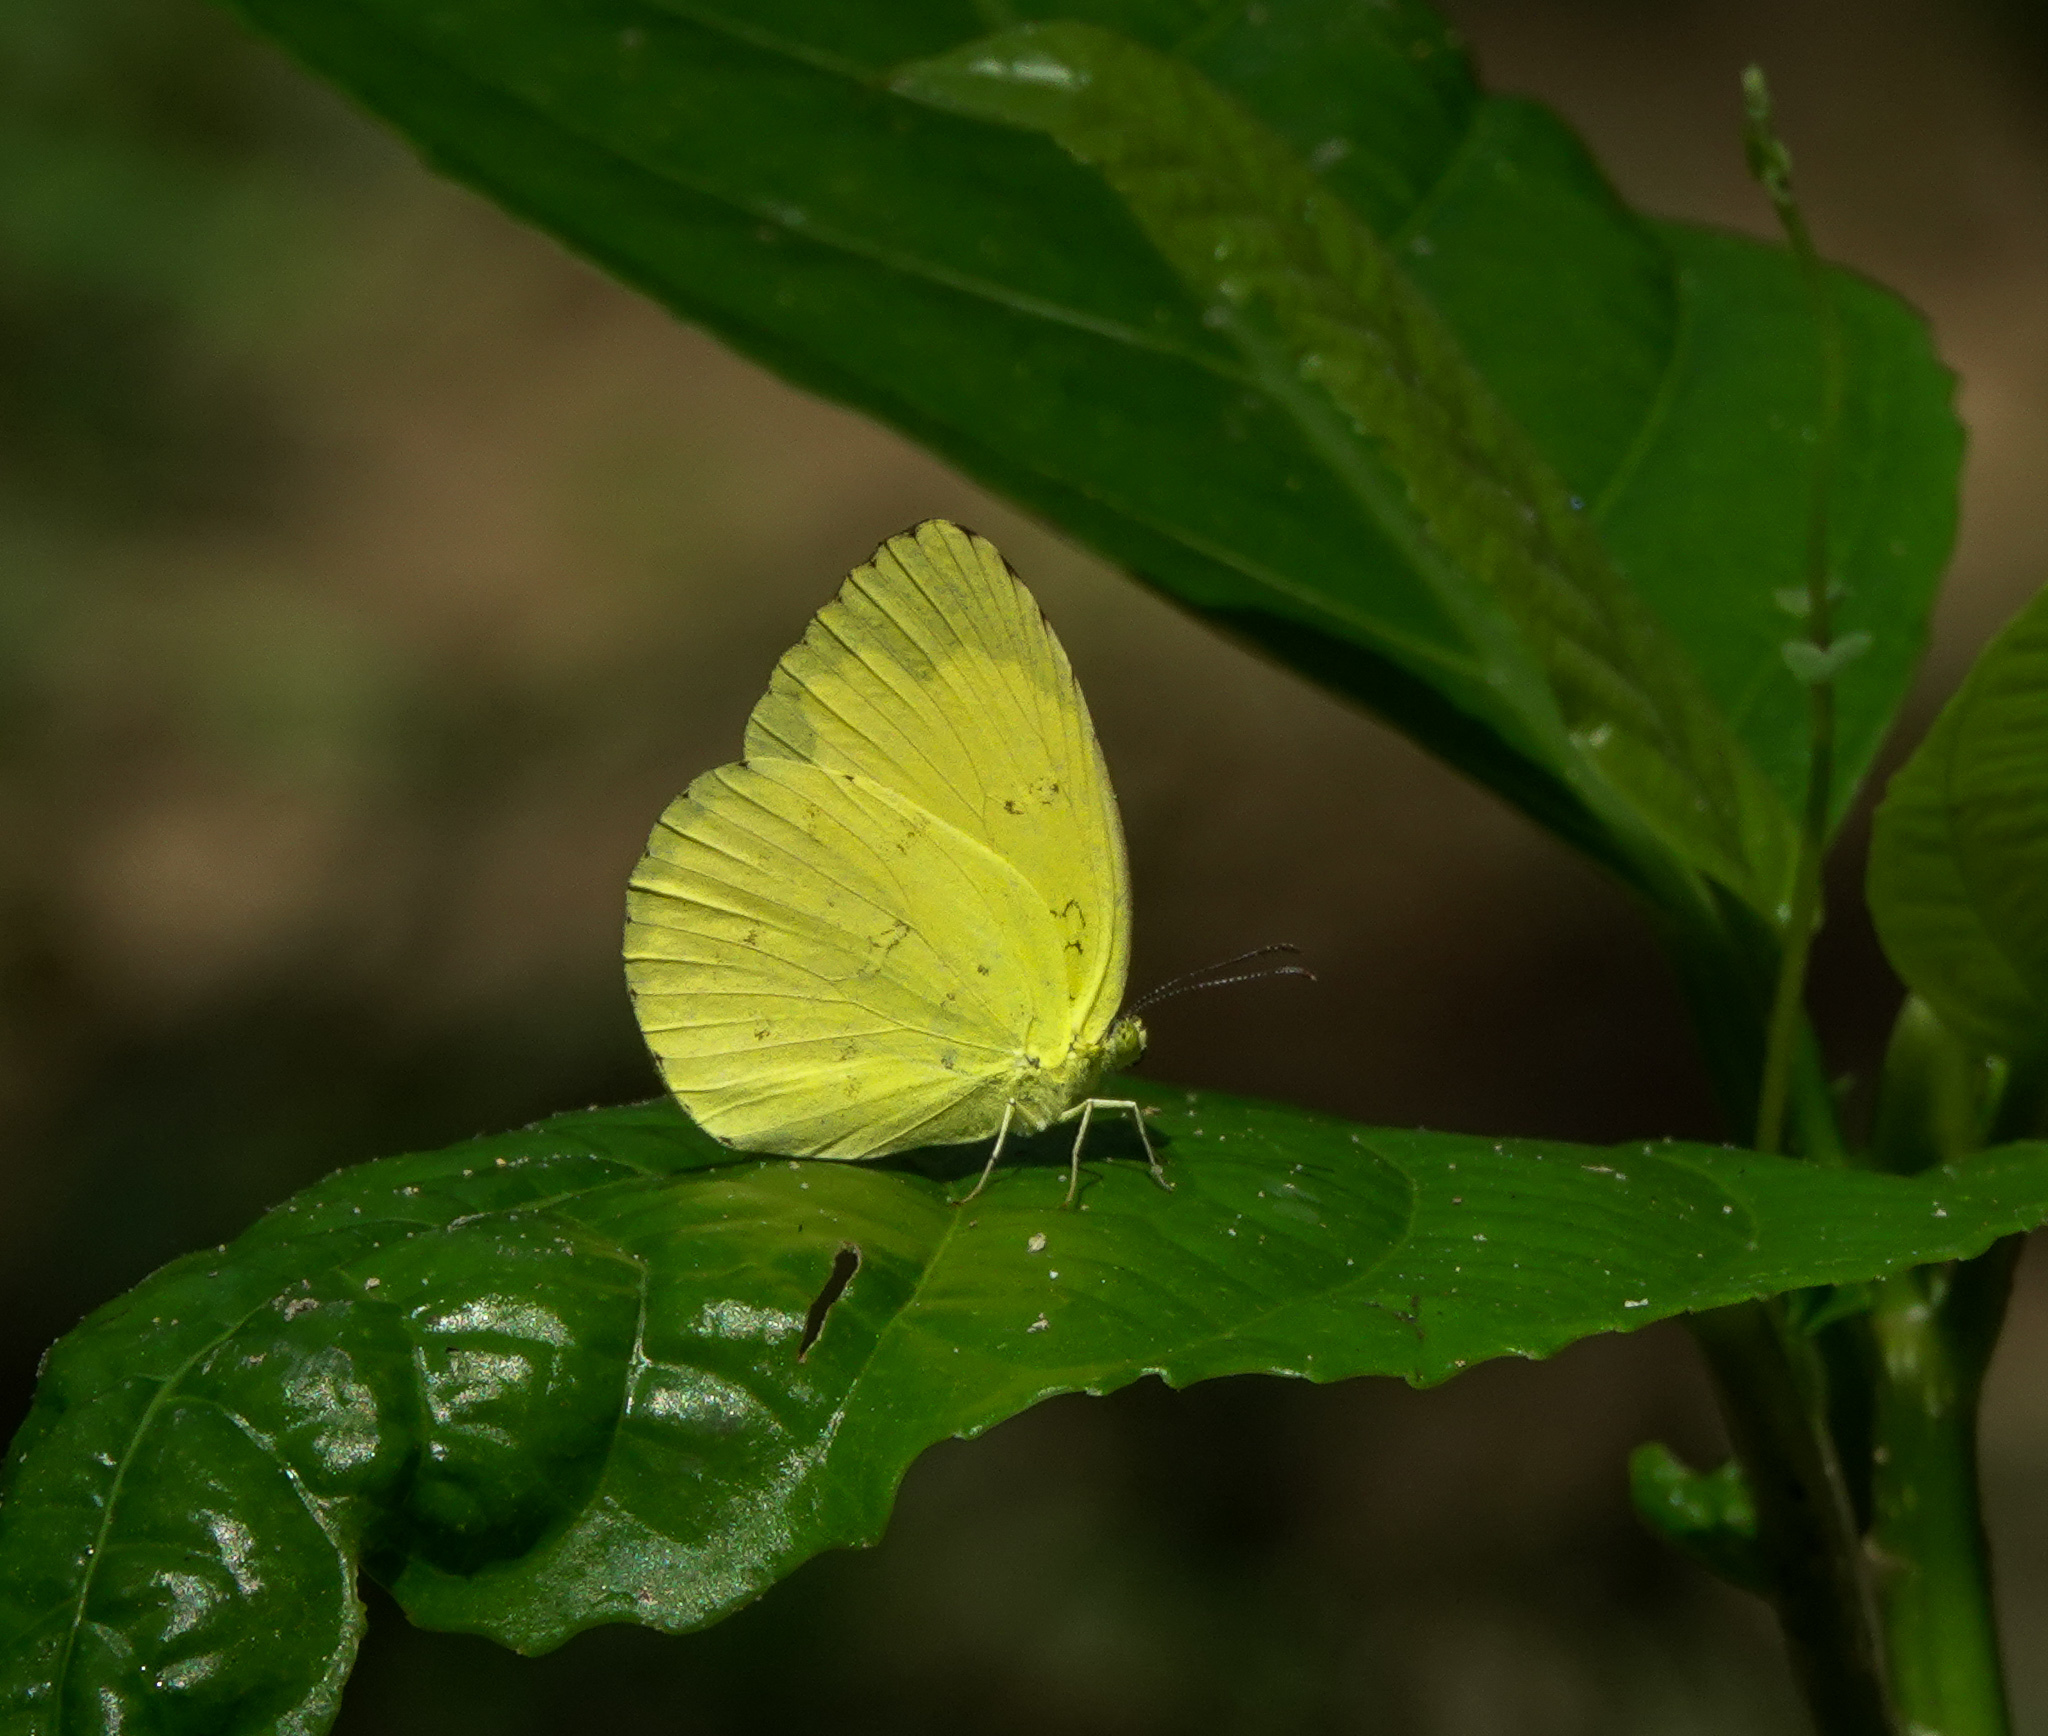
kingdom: Animalia
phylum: Arthropoda
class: Insecta
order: Lepidoptera
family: Pieridae
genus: Eurema
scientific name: Eurema hecabe
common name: Pale grass yellow
